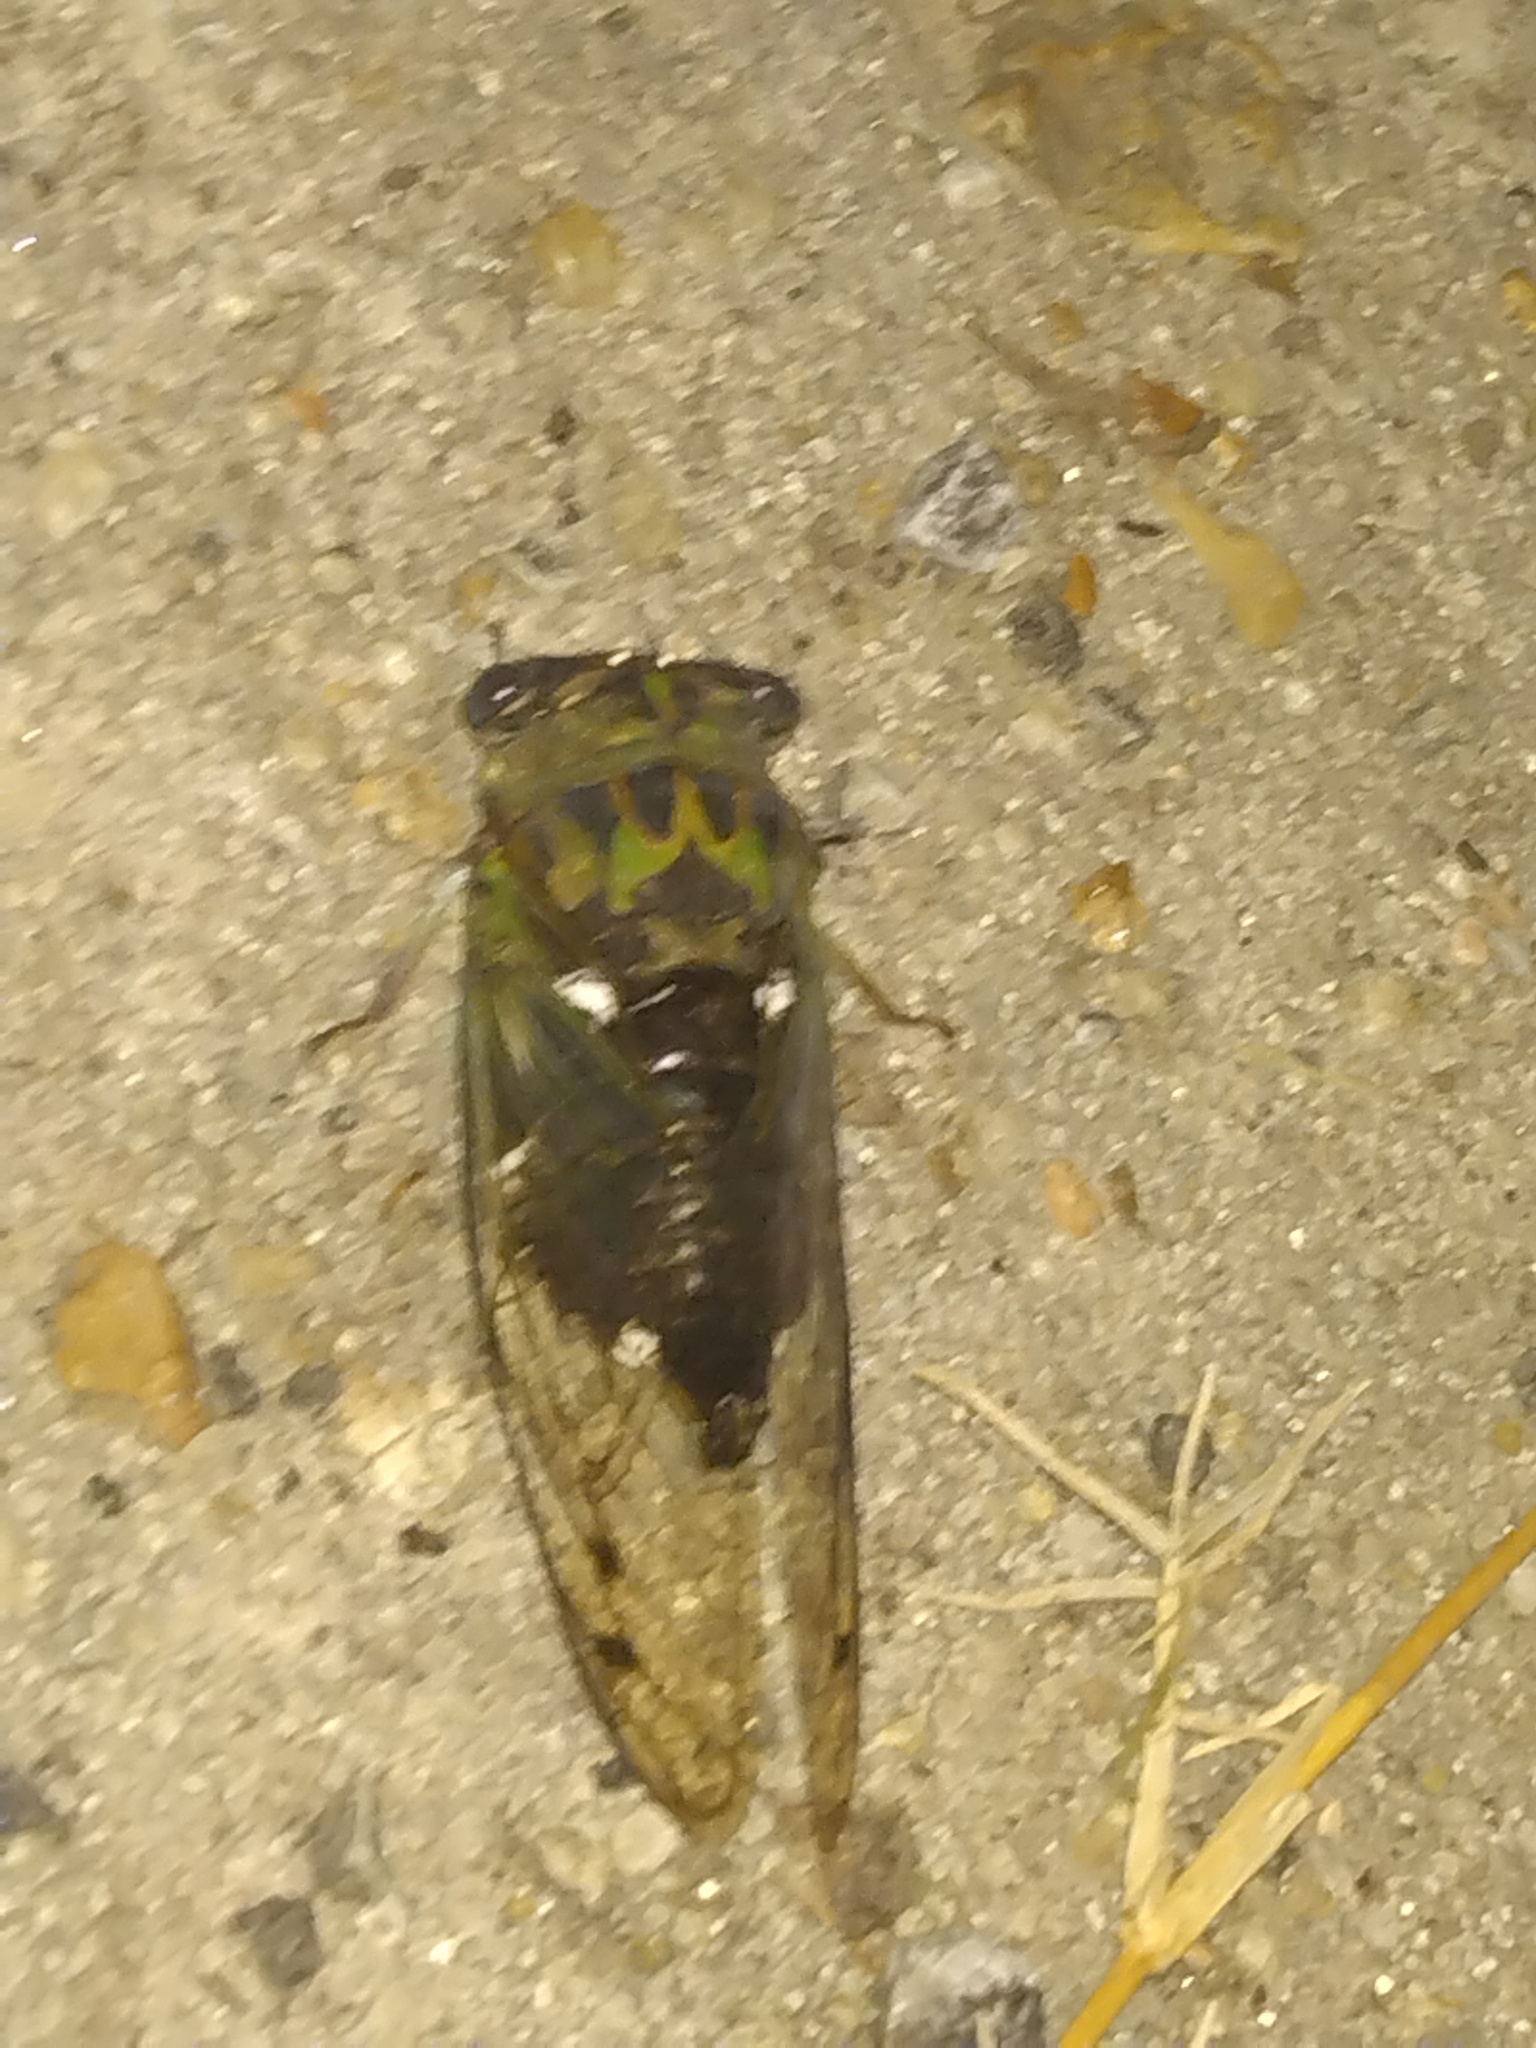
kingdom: Animalia
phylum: Arthropoda
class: Insecta
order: Hemiptera
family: Cicadidae
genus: Neotibicen
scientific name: Neotibicen pruinosus
